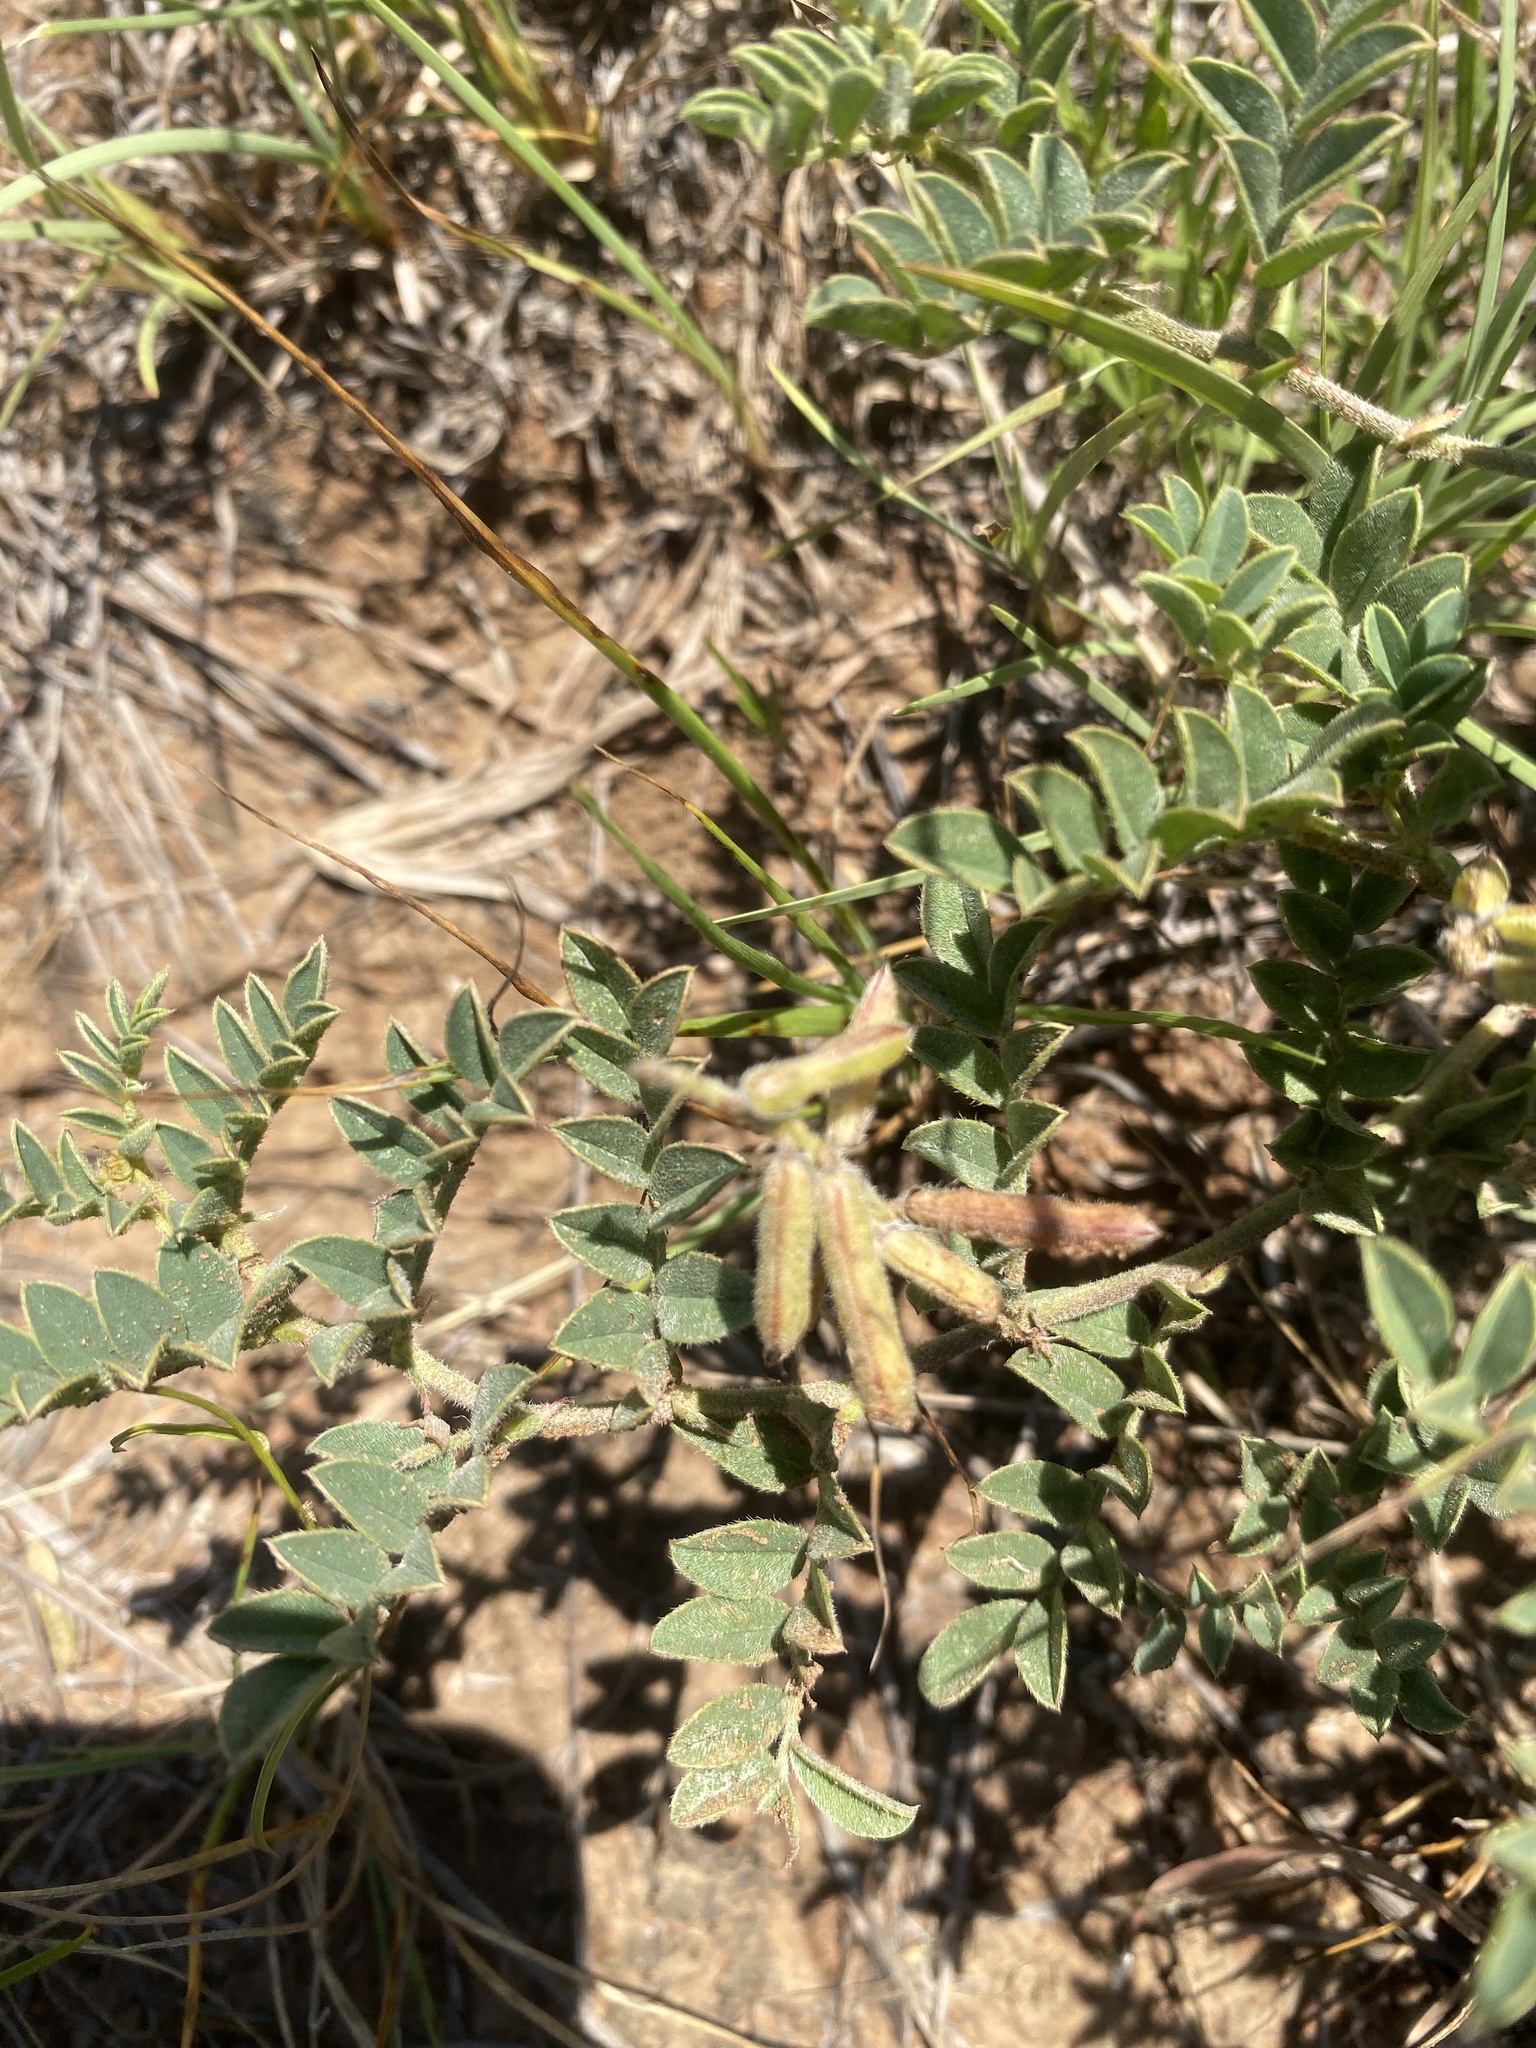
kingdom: Plantae
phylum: Tracheophyta
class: Magnoliopsida
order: Fabales
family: Fabaceae
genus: Indigofera
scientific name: Indigofera daleoides
